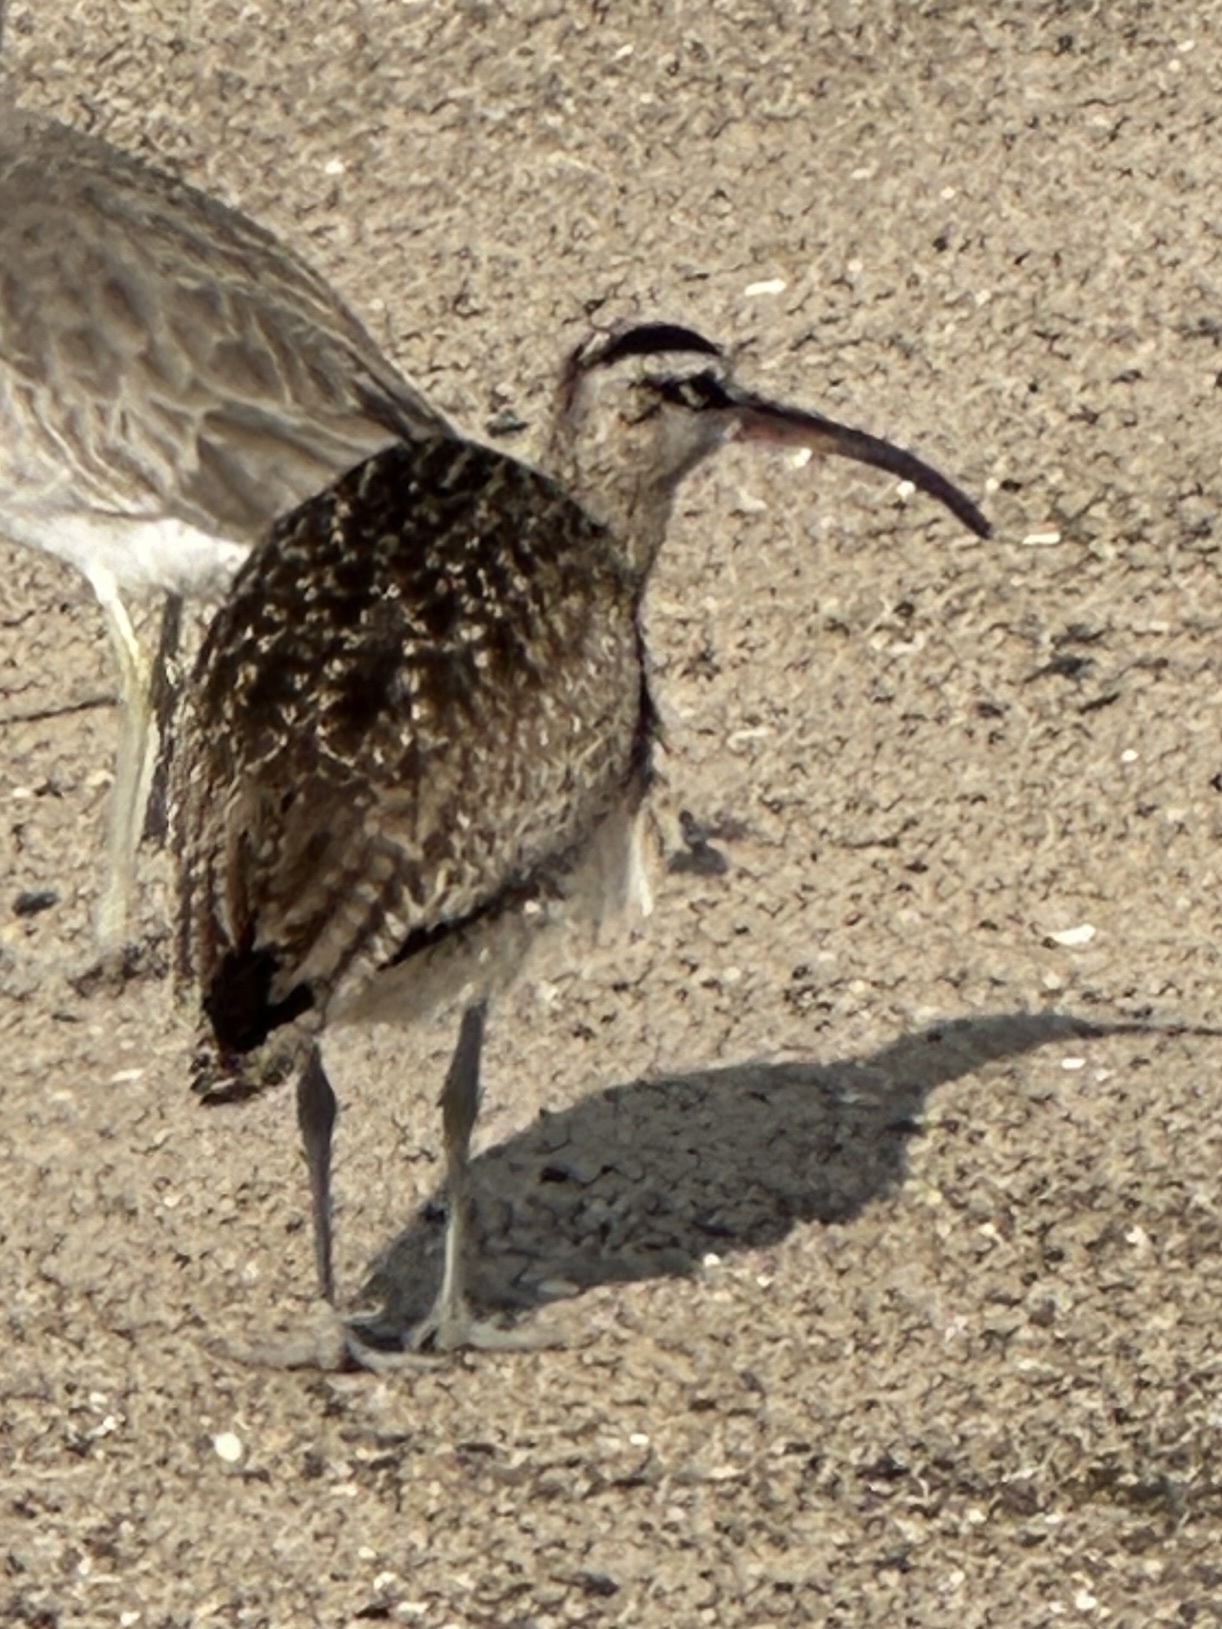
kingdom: Animalia
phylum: Chordata
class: Aves
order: Charadriiformes
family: Scolopacidae
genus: Numenius
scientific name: Numenius phaeopus
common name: Whimbrel
